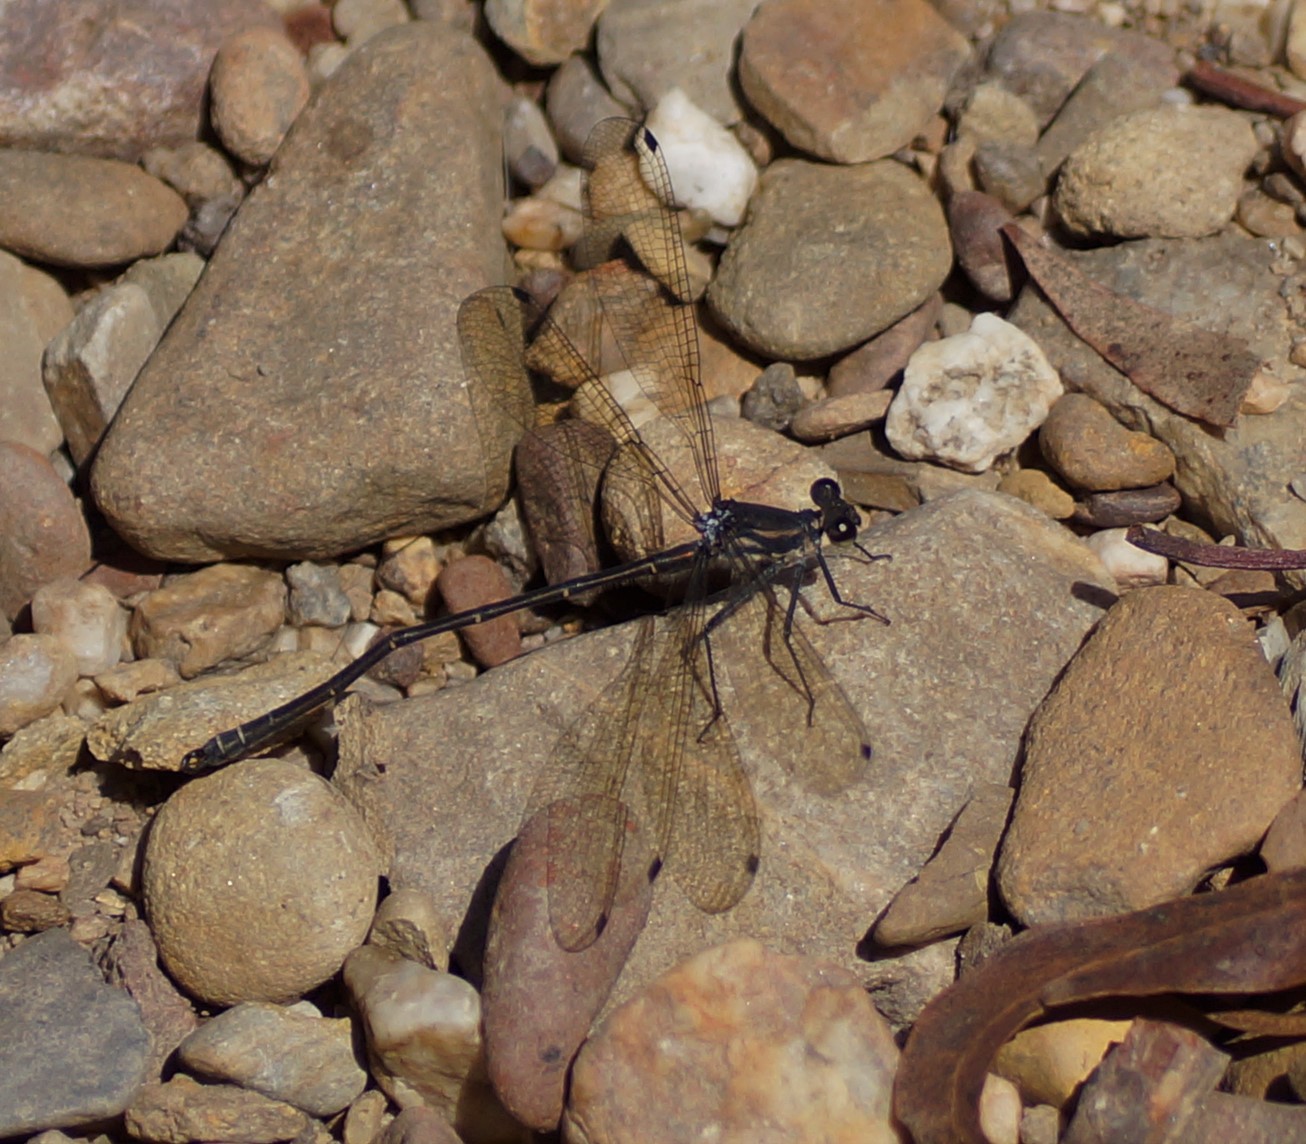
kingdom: Animalia
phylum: Arthropoda
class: Insecta
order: Odonata
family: Argiolestidae
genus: Austroargiolestes
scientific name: Austroargiolestes icteromelas
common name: Common flatwing
